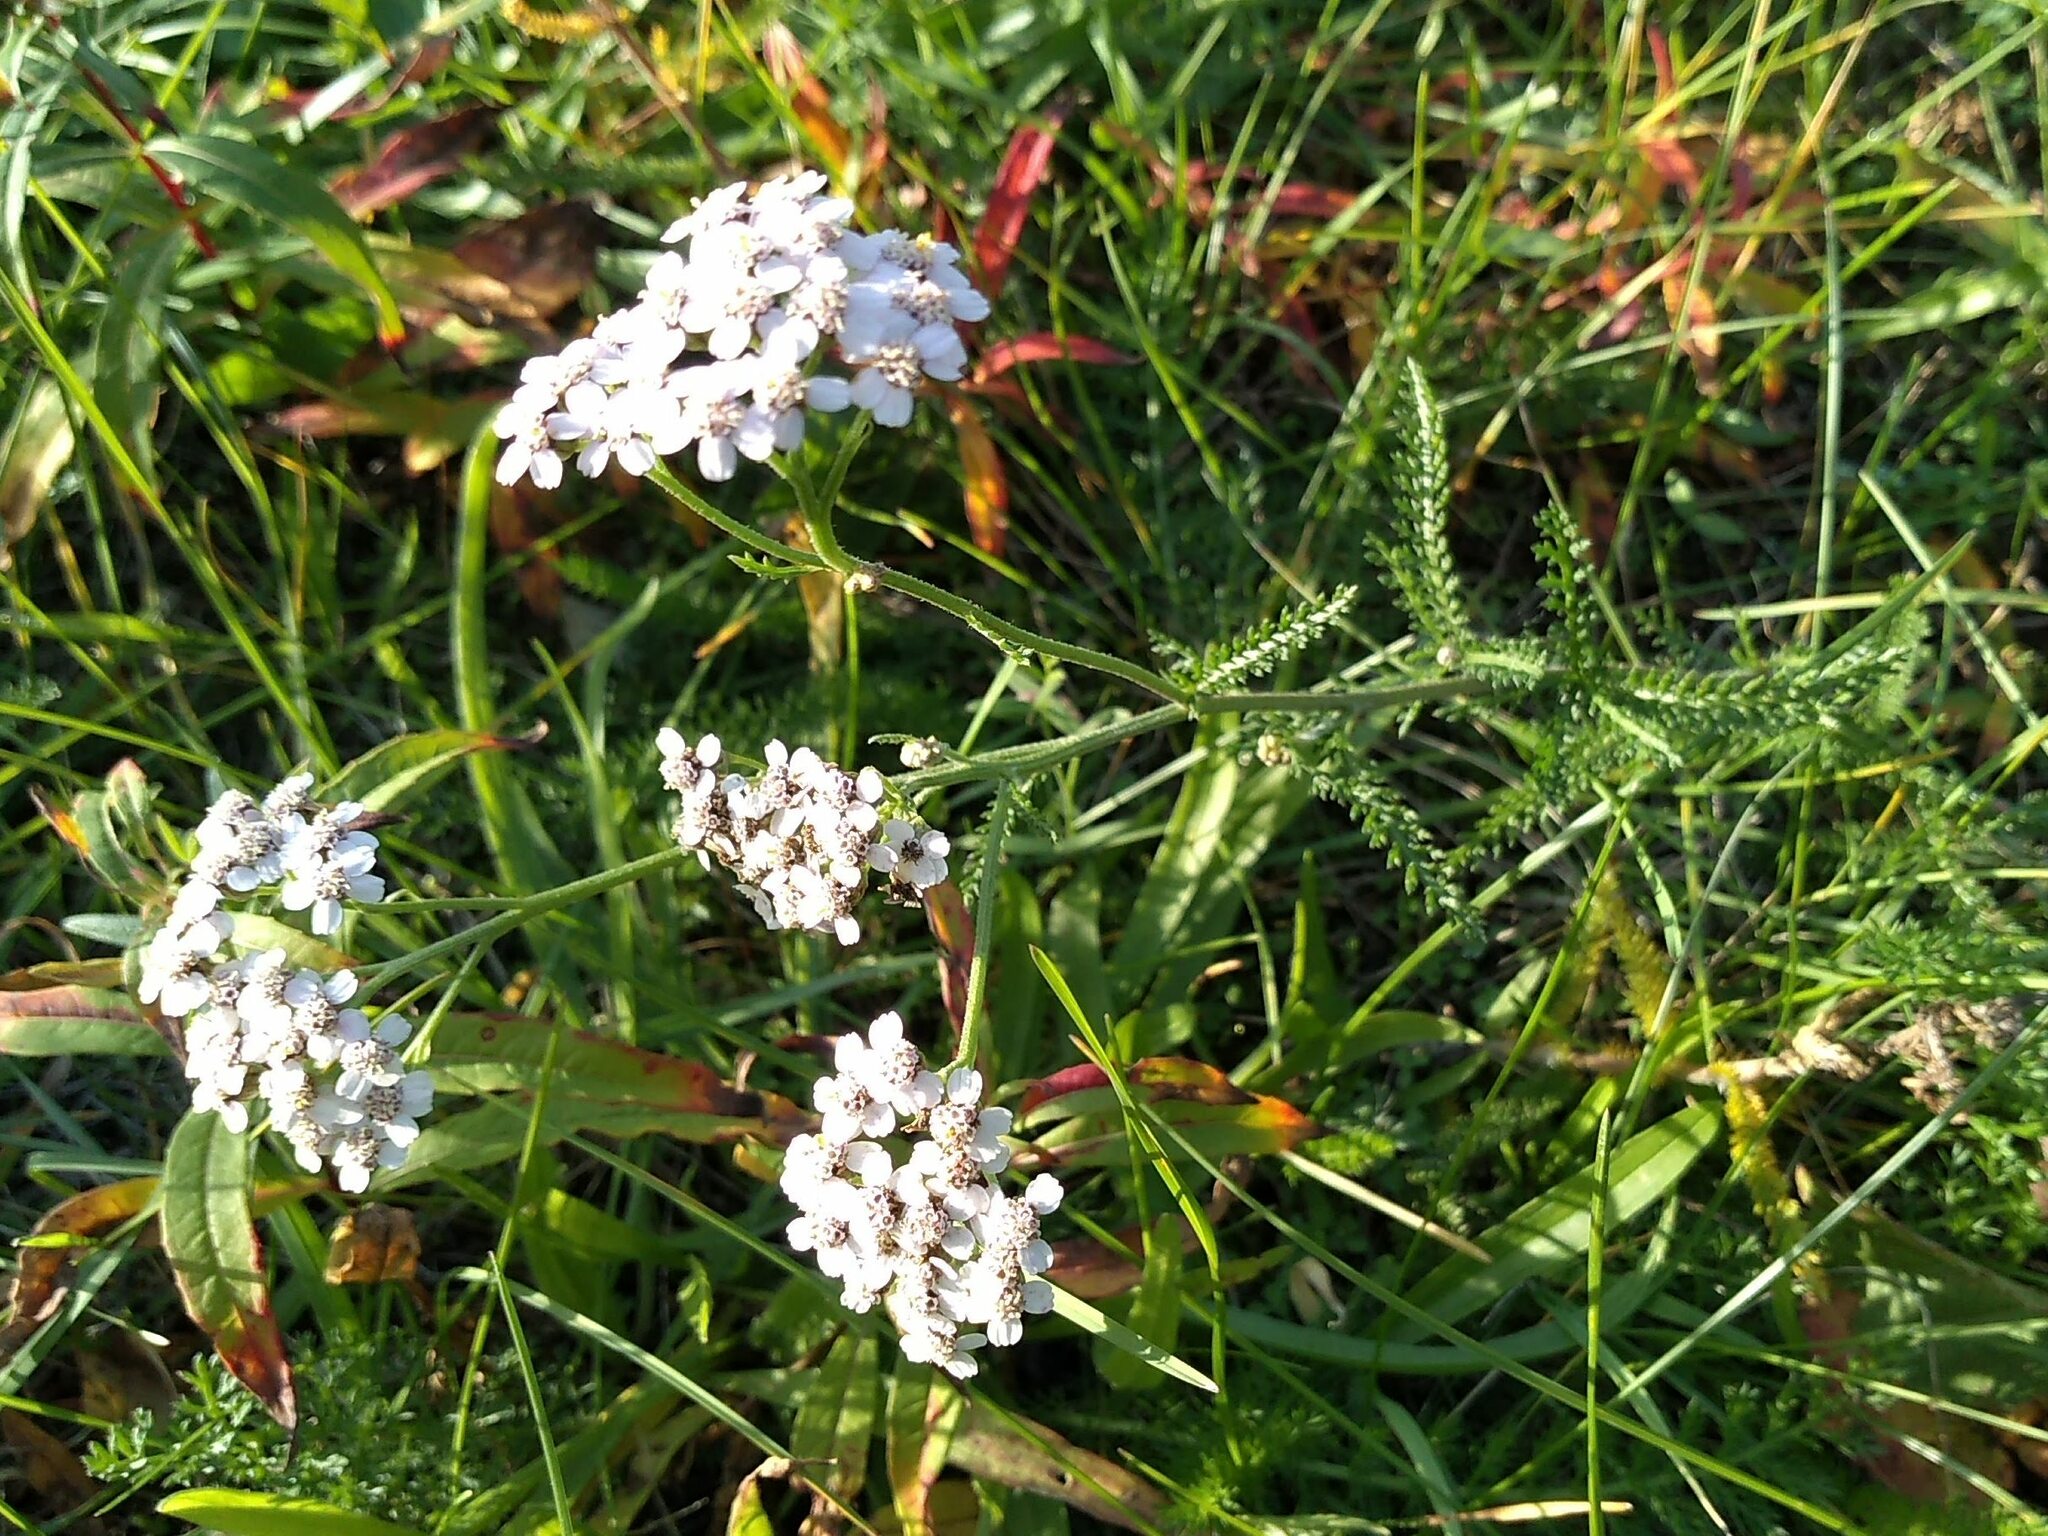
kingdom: Plantae
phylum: Tracheophyta
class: Magnoliopsida
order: Asterales
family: Asteraceae
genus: Achillea
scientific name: Achillea millefolium
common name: Yarrow
